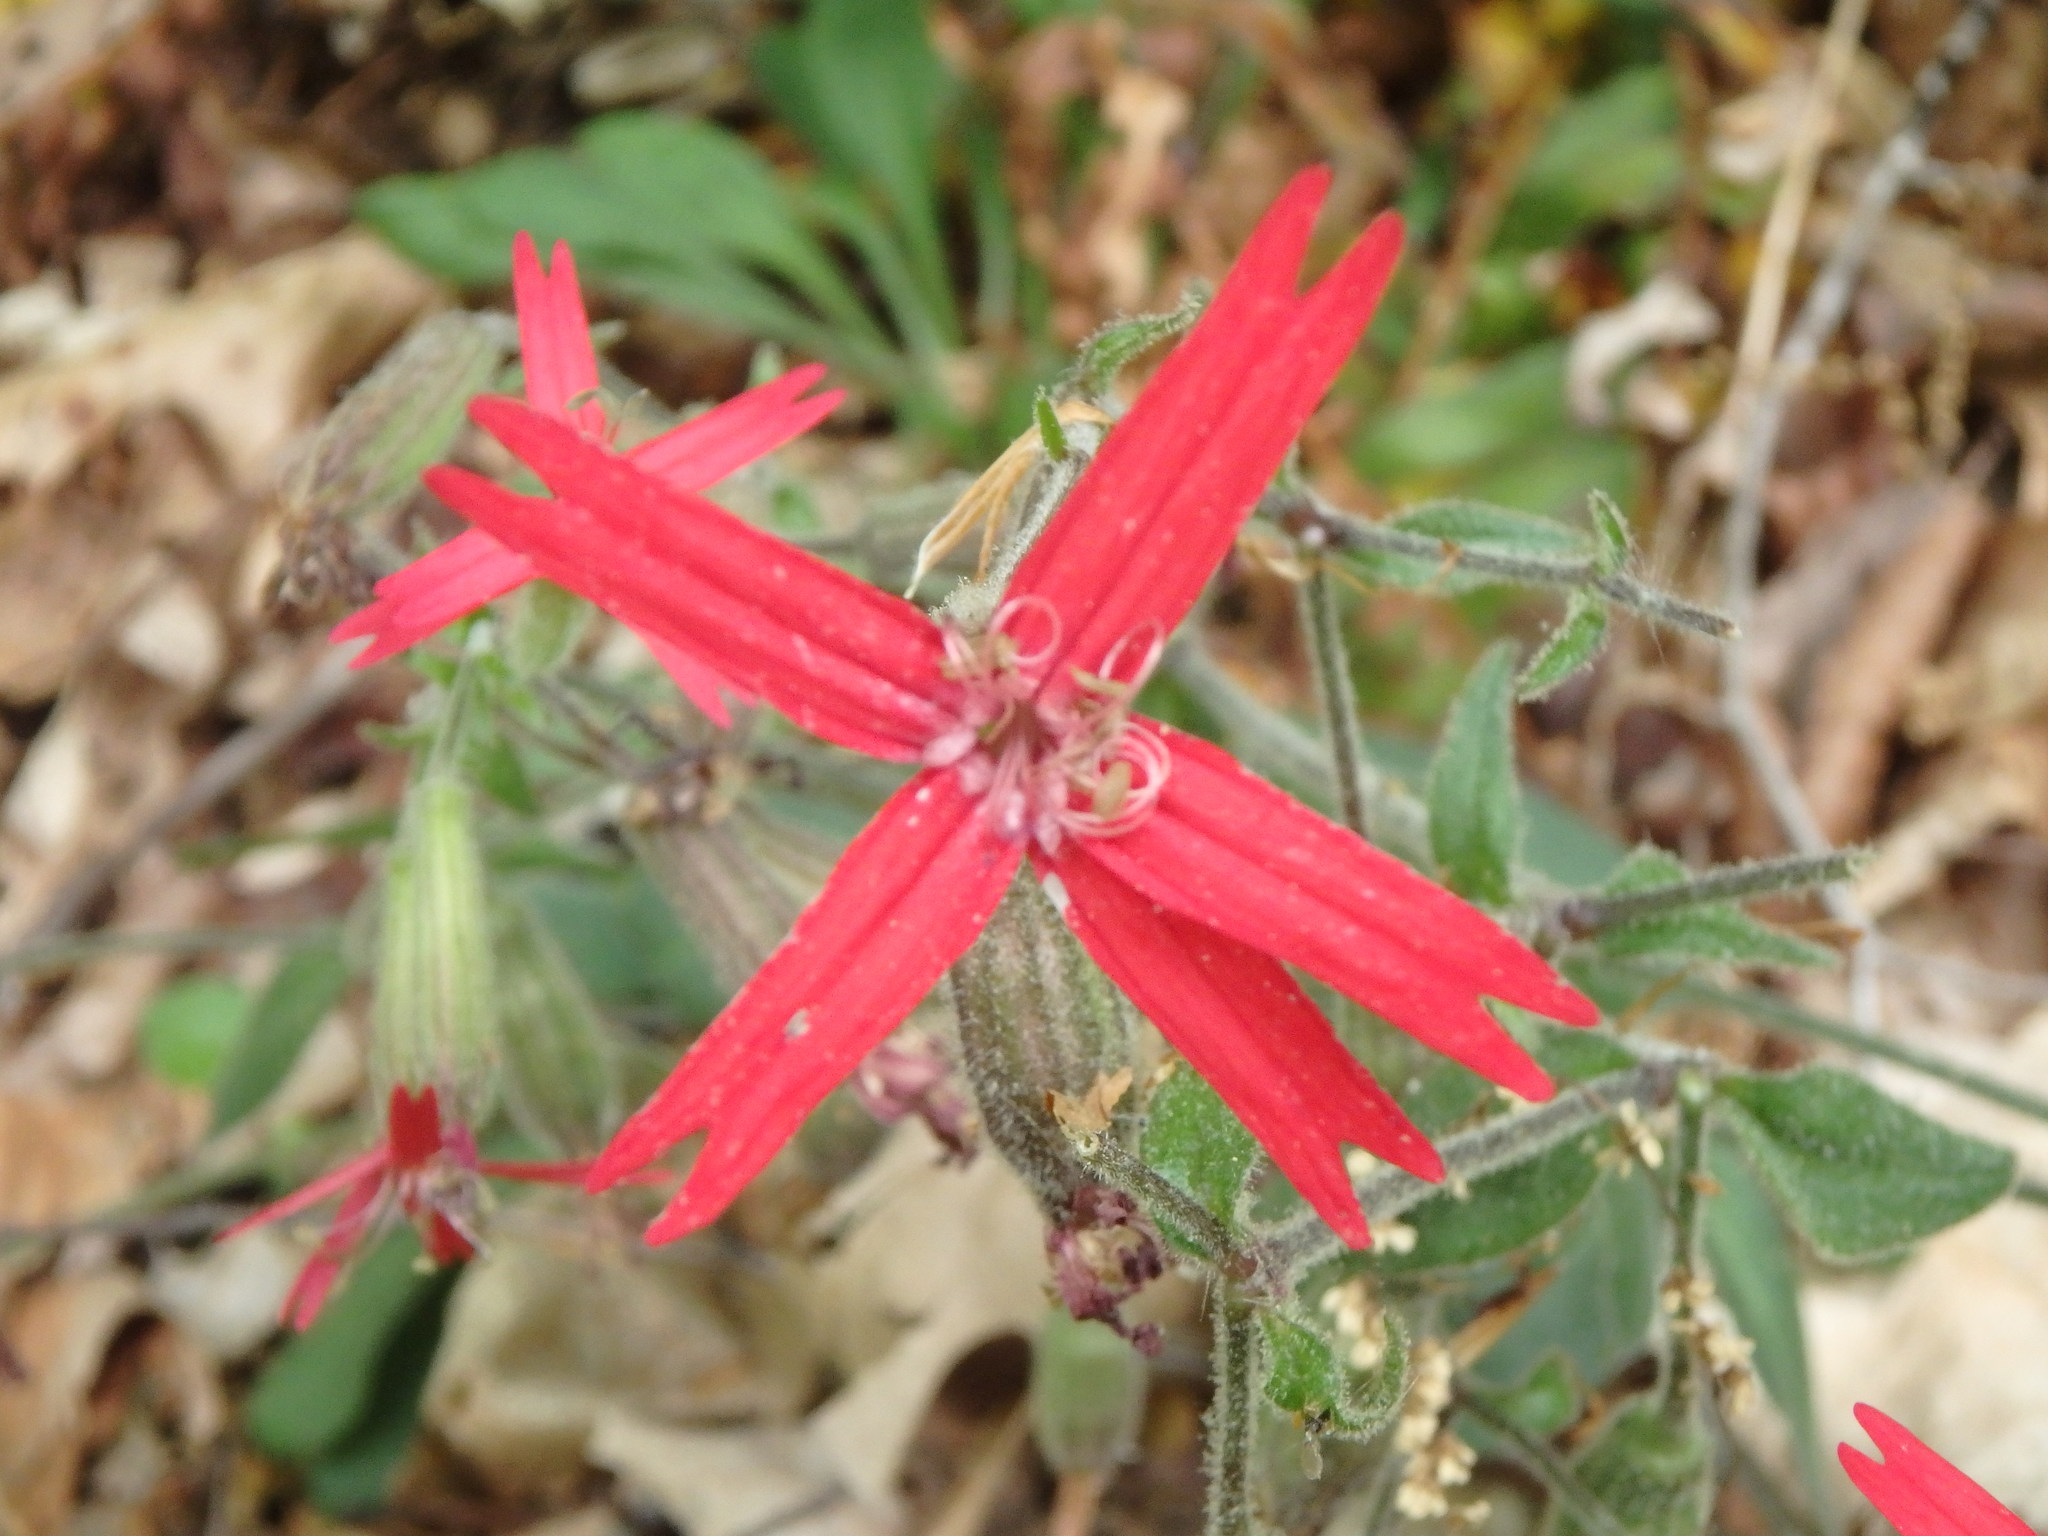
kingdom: Plantae
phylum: Tracheophyta
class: Magnoliopsida
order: Caryophyllales
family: Caryophyllaceae
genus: Silene
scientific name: Silene virginica
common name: Fire-pink
